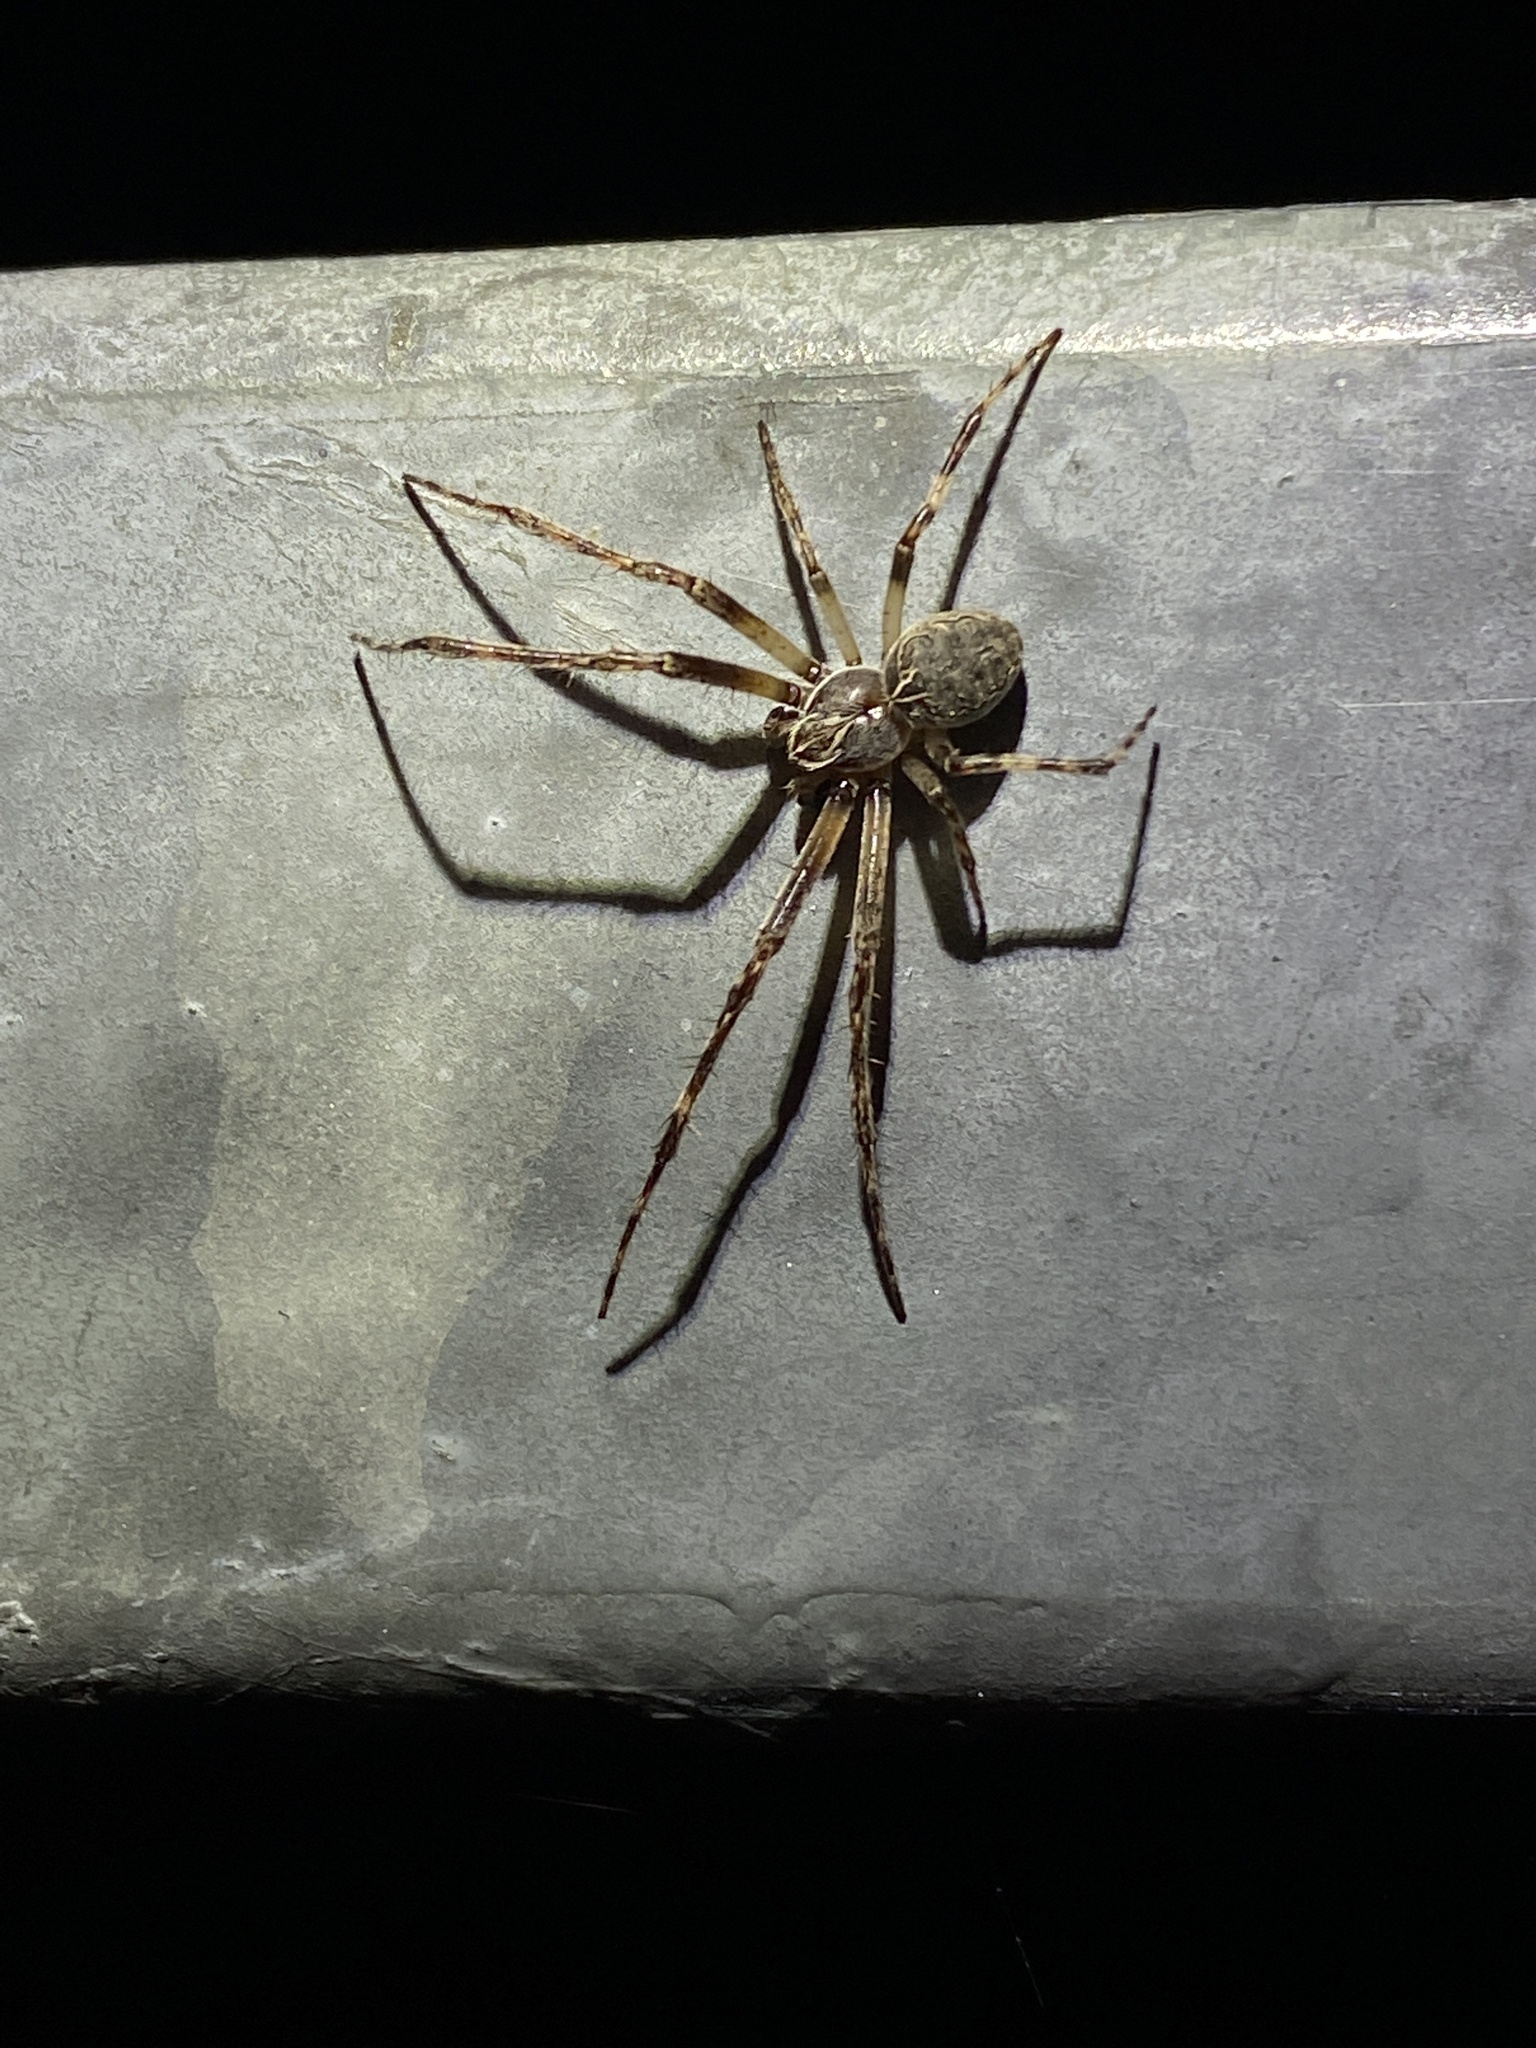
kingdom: Animalia
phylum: Arthropoda
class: Arachnida
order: Araneae
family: Araneidae
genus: Larinioides
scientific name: Larinioides sclopetarius
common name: Bridge orbweaver
